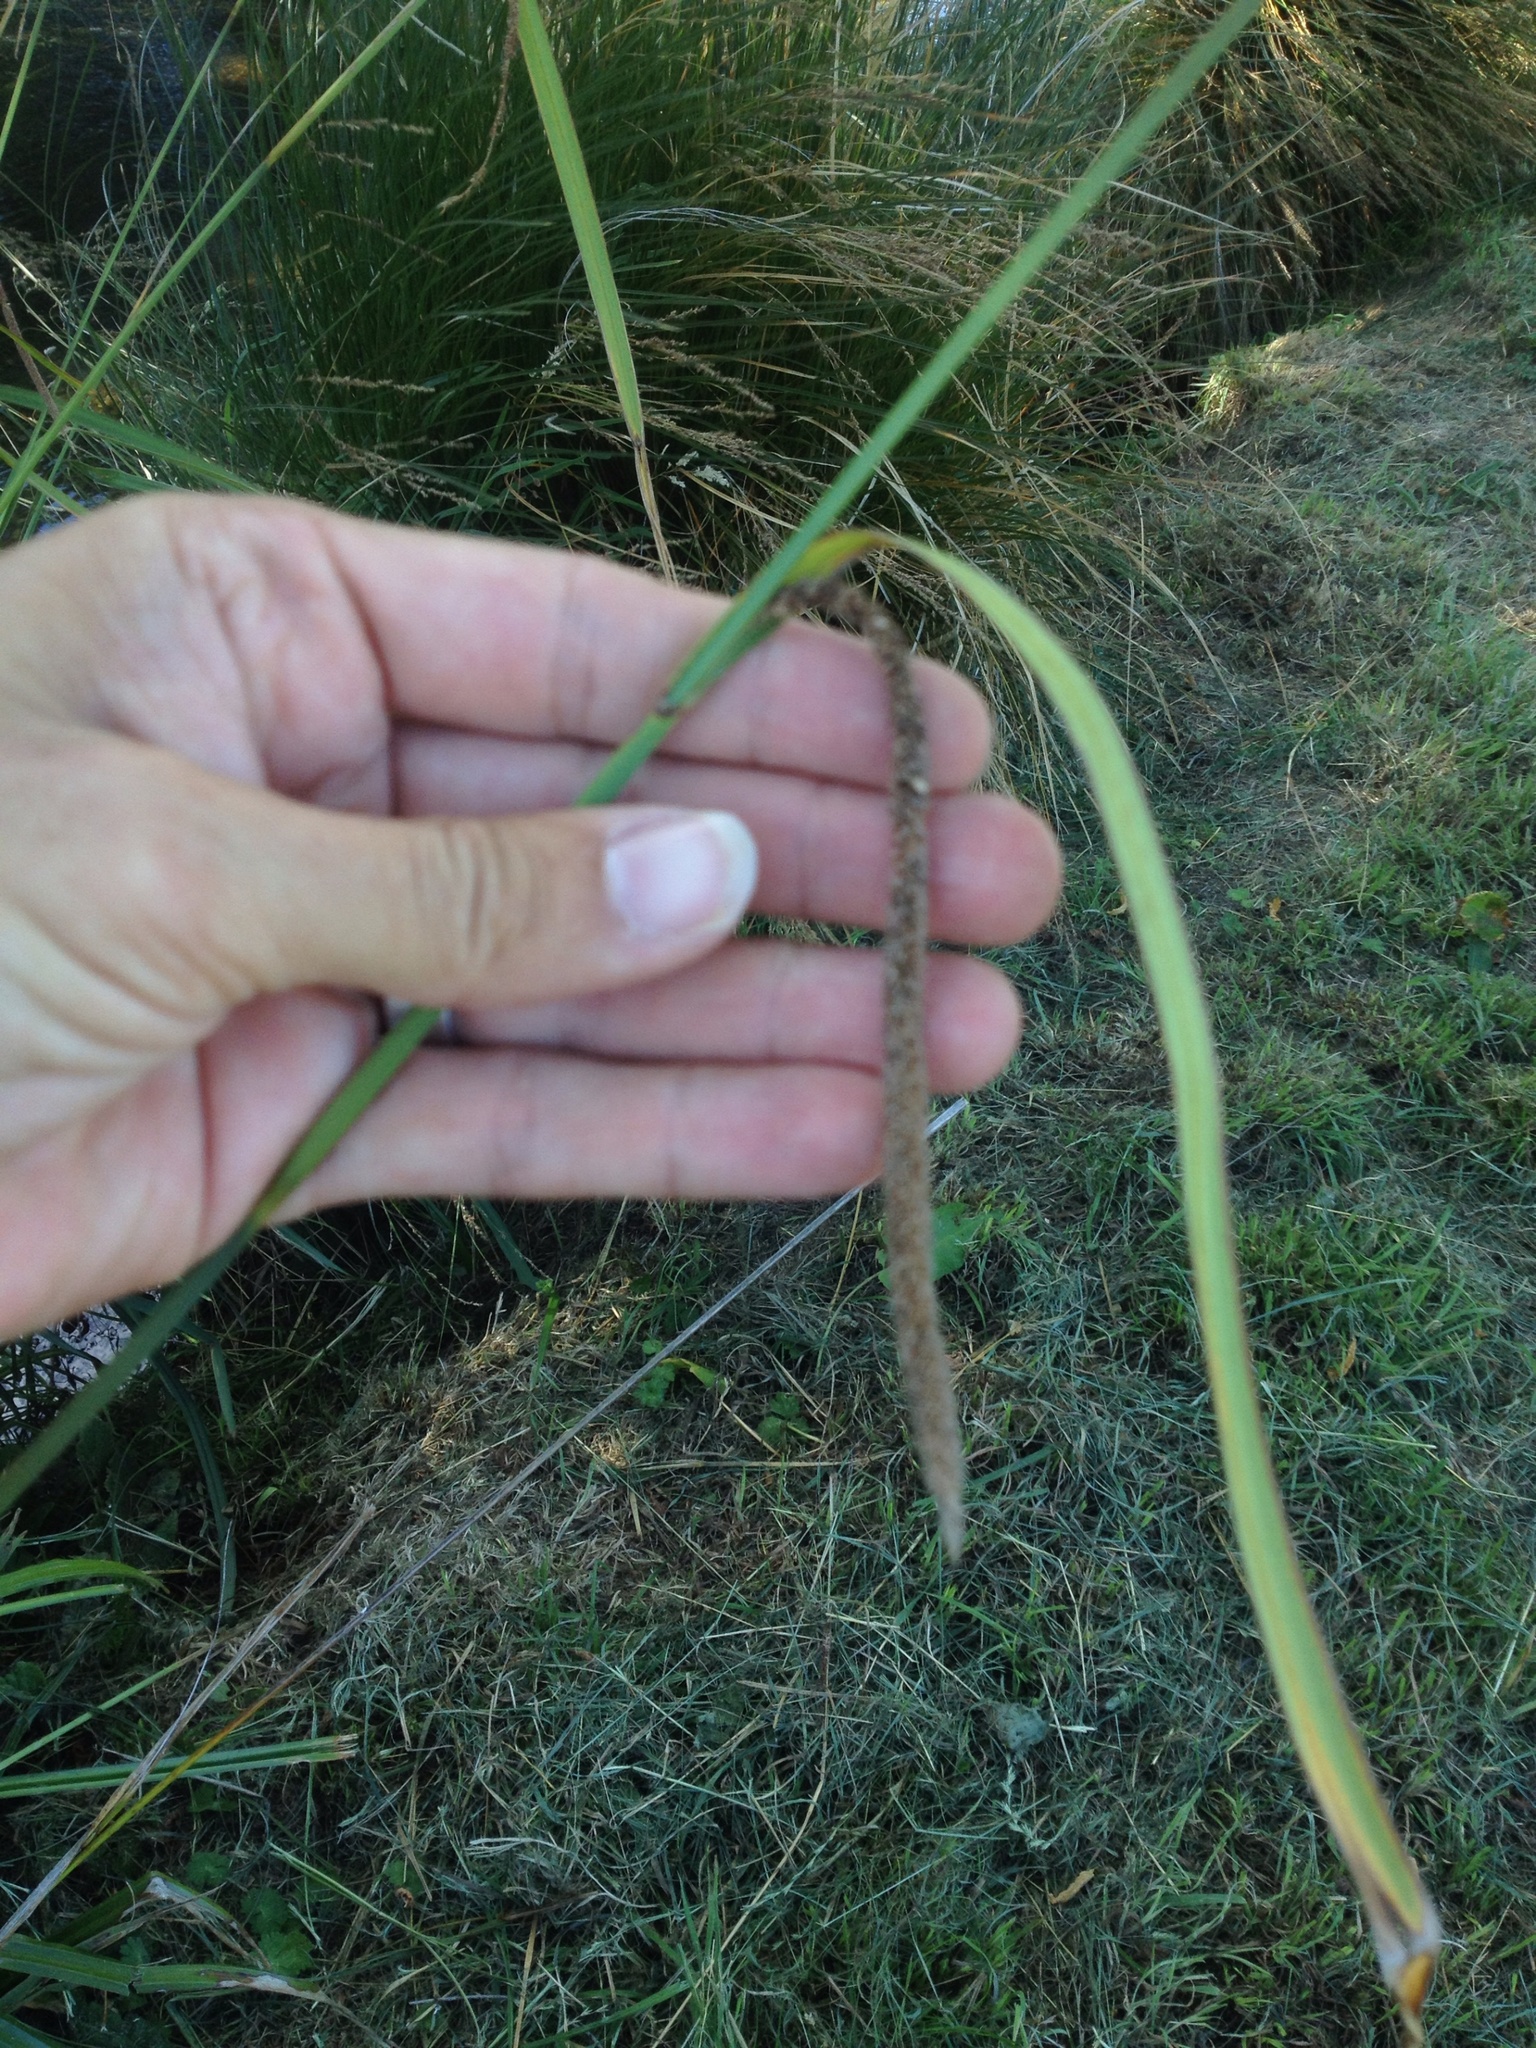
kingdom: Plantae
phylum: Tracheophyta
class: Liliopsida
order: Poales
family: Cyperaceae
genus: Carex
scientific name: Carex pendula
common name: Pendulous sedge
